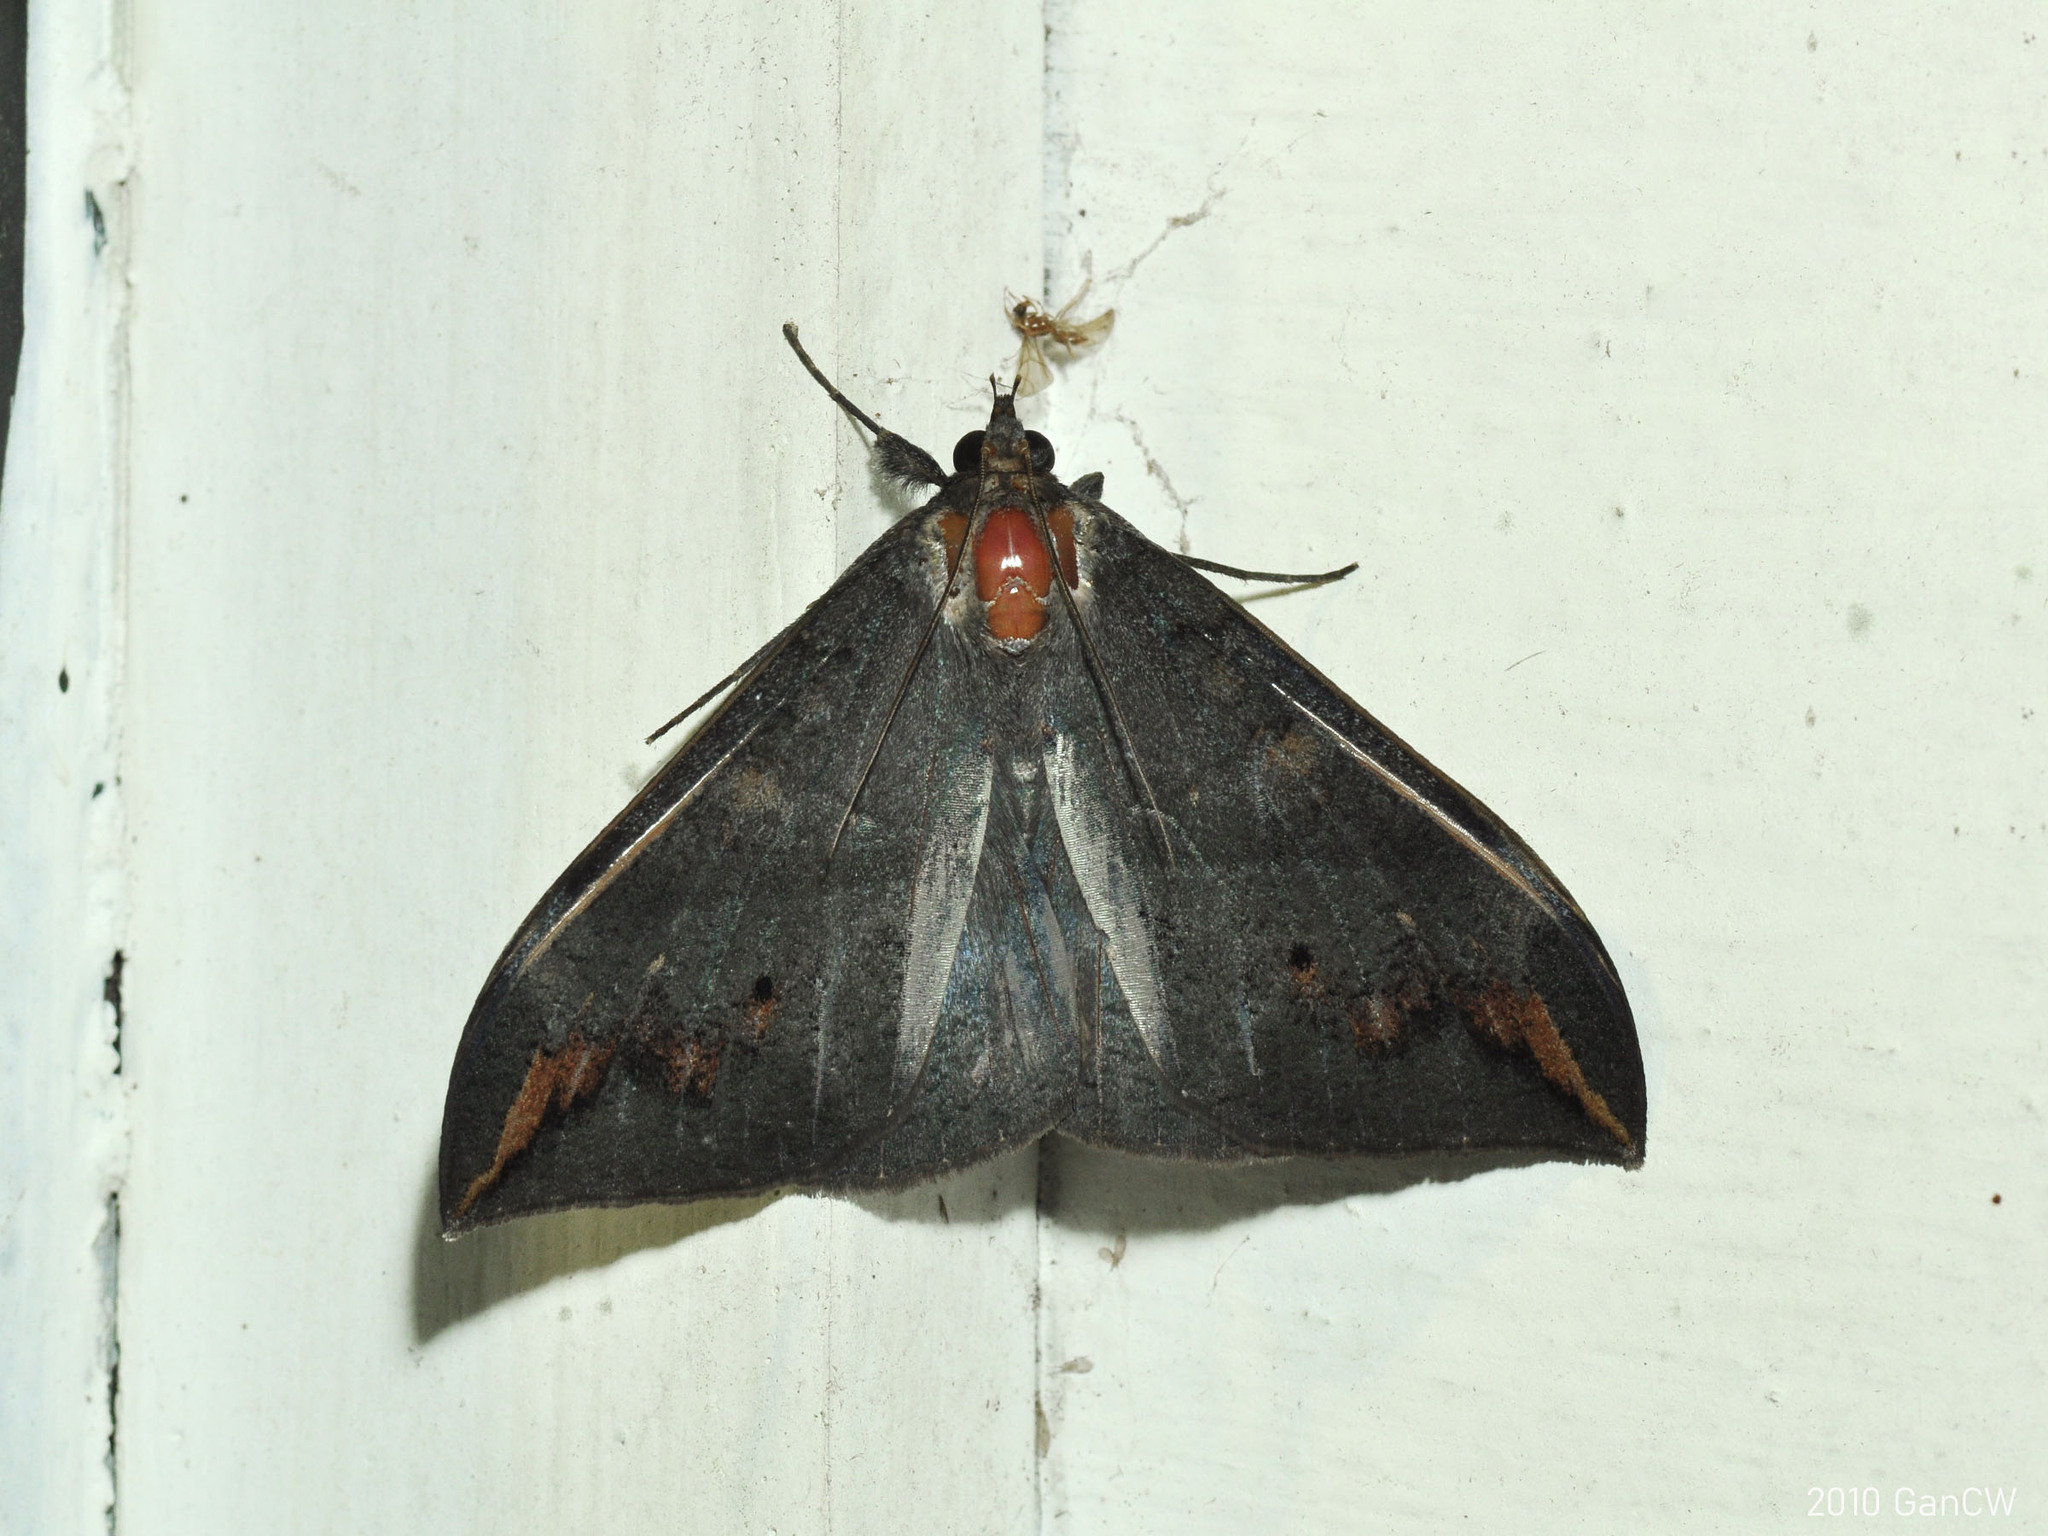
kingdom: Animalia
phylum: Arthropoda
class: Insecta
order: Lepidoptera
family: Erebidae
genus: Ischyja
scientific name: Ischyja ferrifracta
